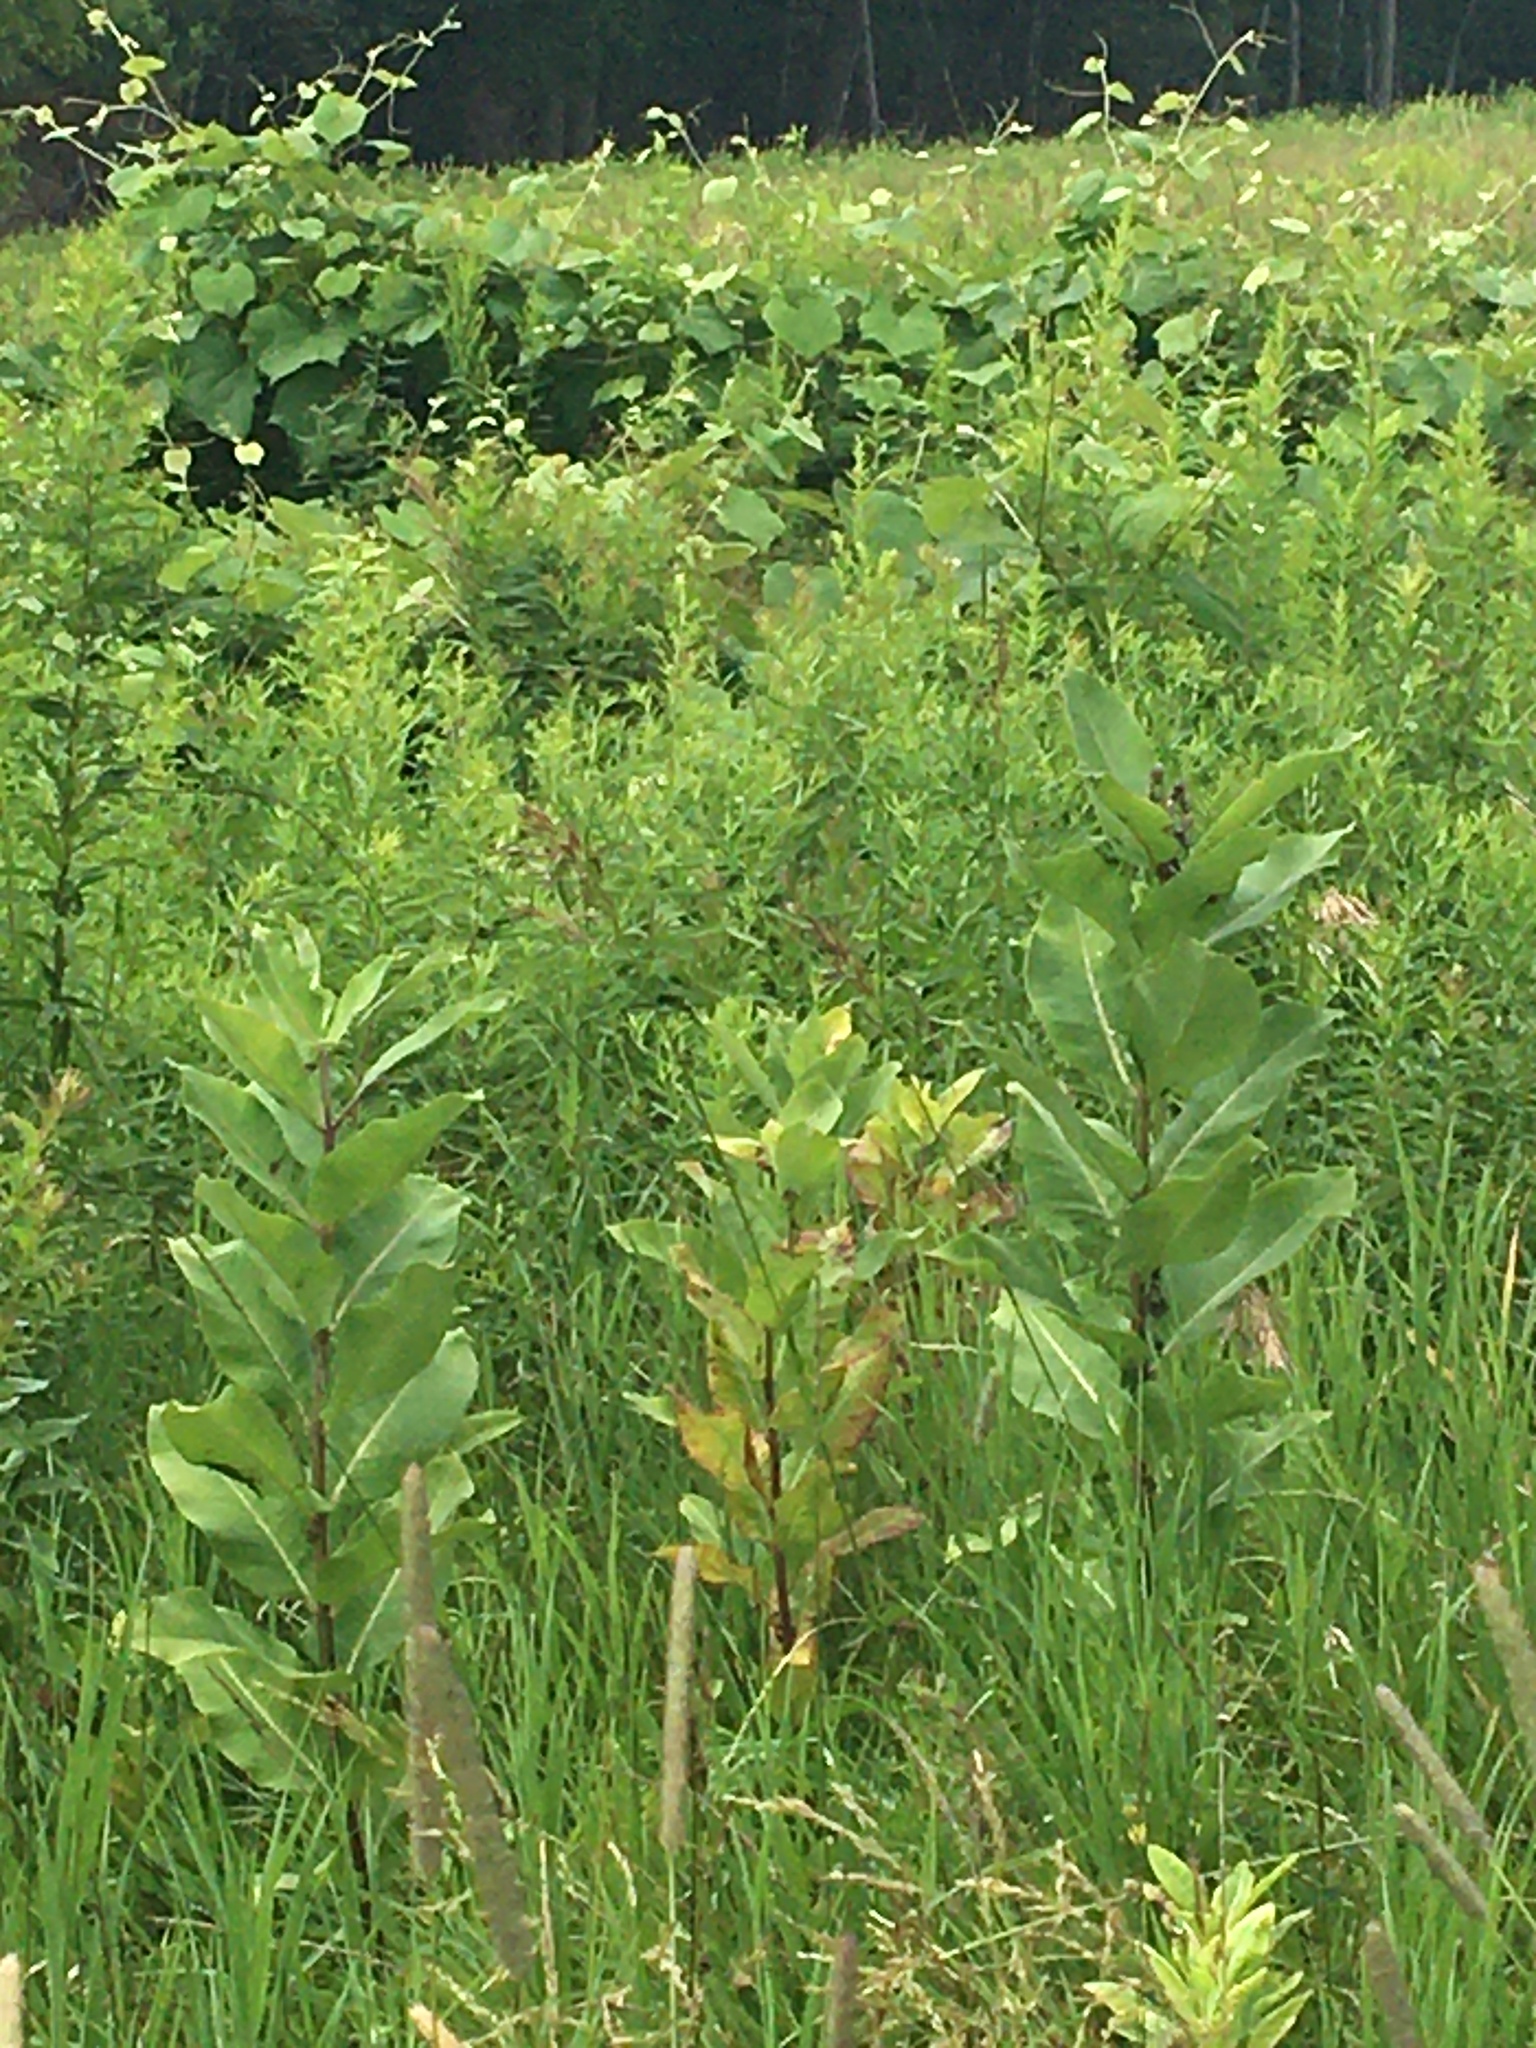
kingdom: Plantae
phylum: Tracheophyta
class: Magnoliopsida
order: Gentianales
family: Apocynaceae
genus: Asclepias
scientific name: Asclepias syriaca
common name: Common milkweed
